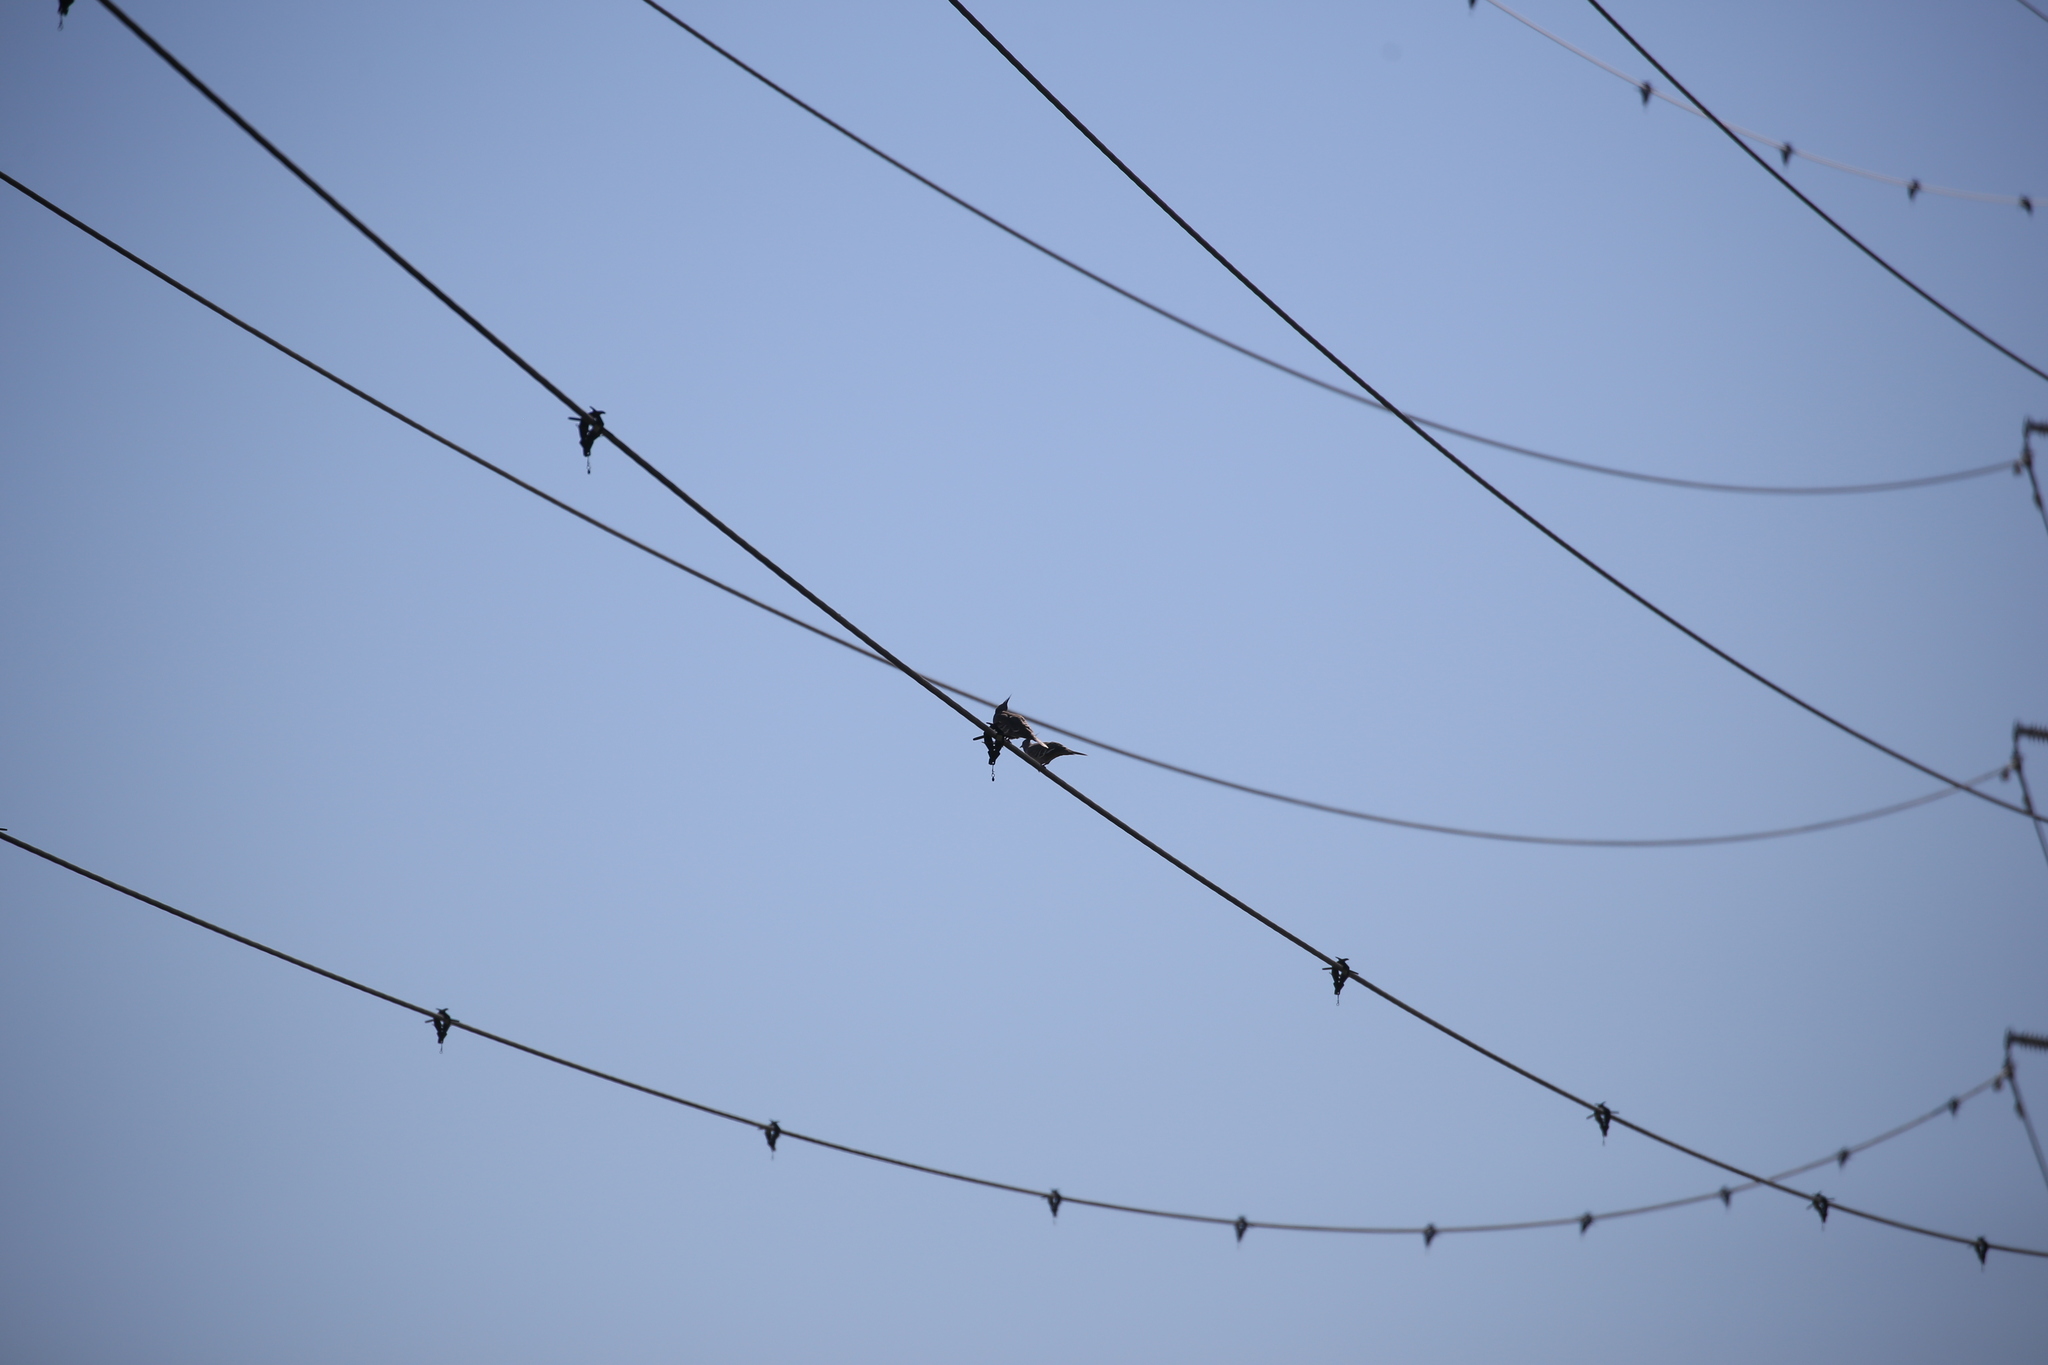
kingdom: Animalia
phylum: Chordata
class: Aves
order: Columbiformes
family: Columbidae
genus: Ocyphaps
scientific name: Ocyphaps lophotes
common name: Crested pigeon
